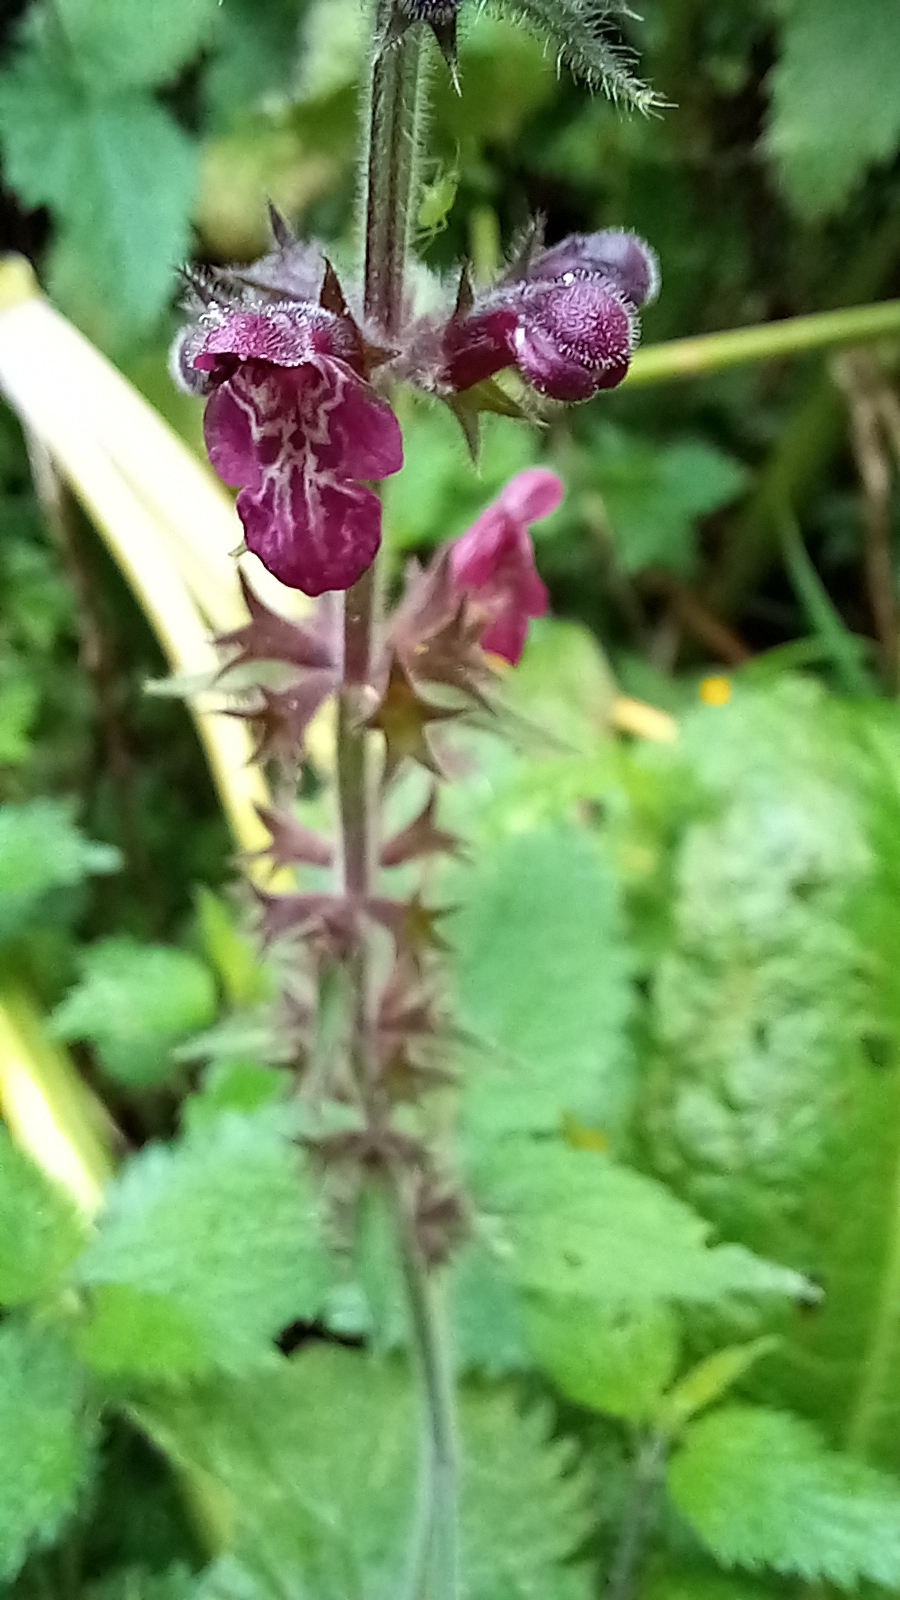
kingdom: Plantae
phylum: Tracheophyta
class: Magnoliopsida
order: Lamiales
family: Lamiaceae
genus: Stachys
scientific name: Stachys sylvatica
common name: Hedge woundwort
